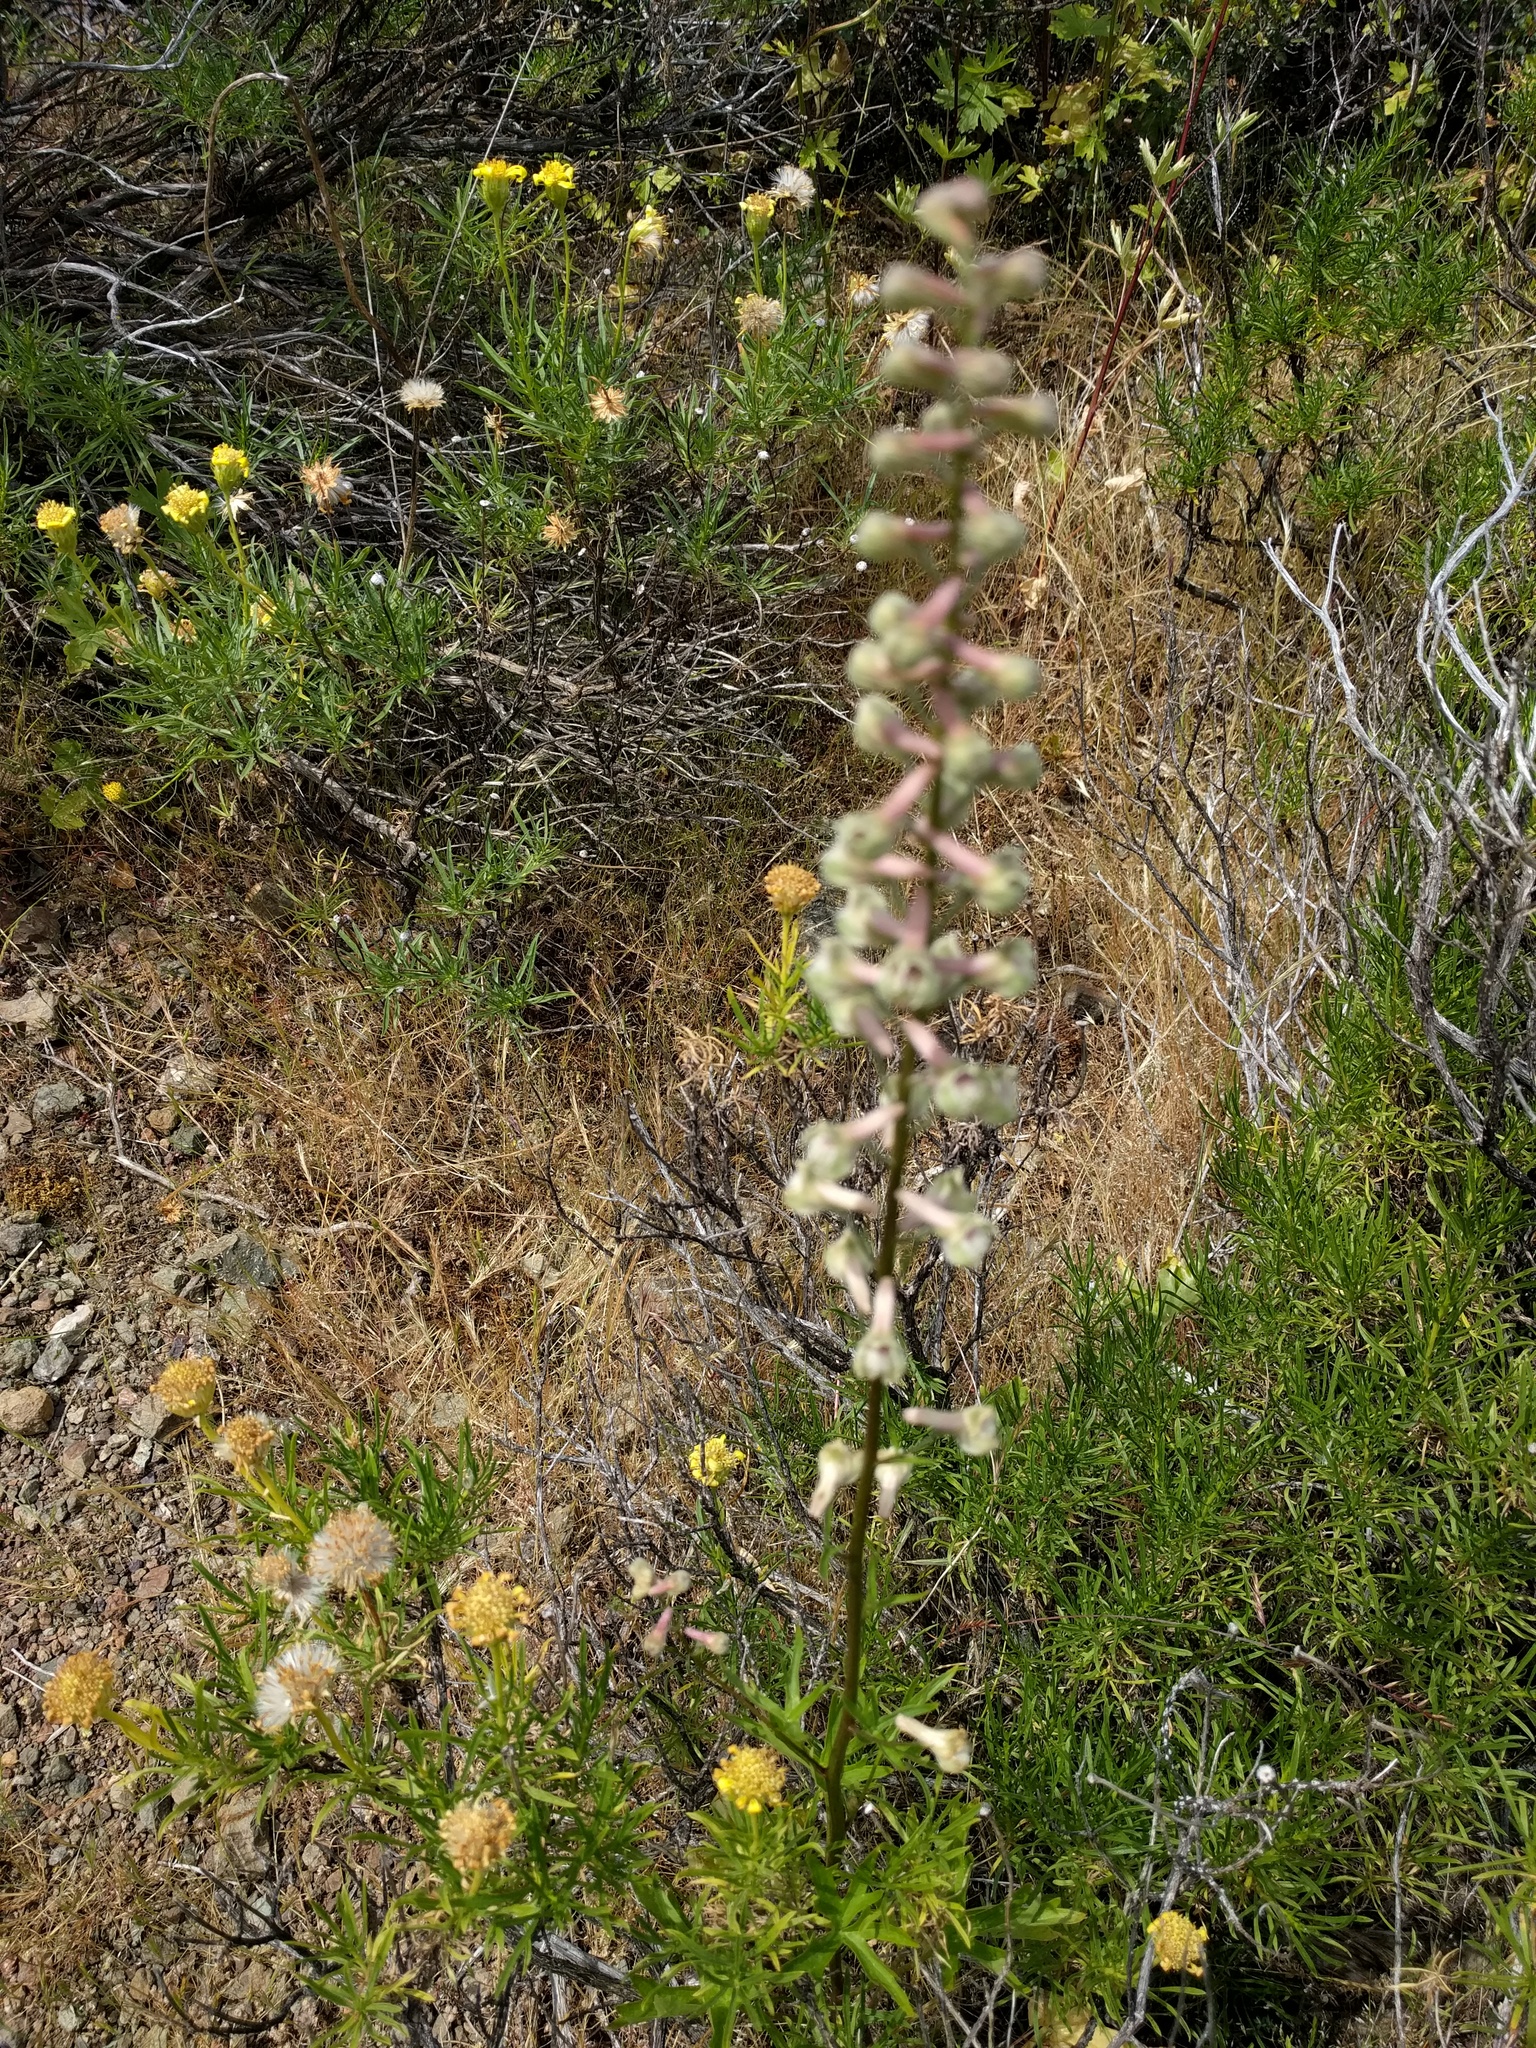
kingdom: Plantae
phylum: Tracheophyta
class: Magnoliopsida
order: Ranunculales
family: Ranunculaceae
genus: Delphinium
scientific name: Delphinium californicum
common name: California larkspur
